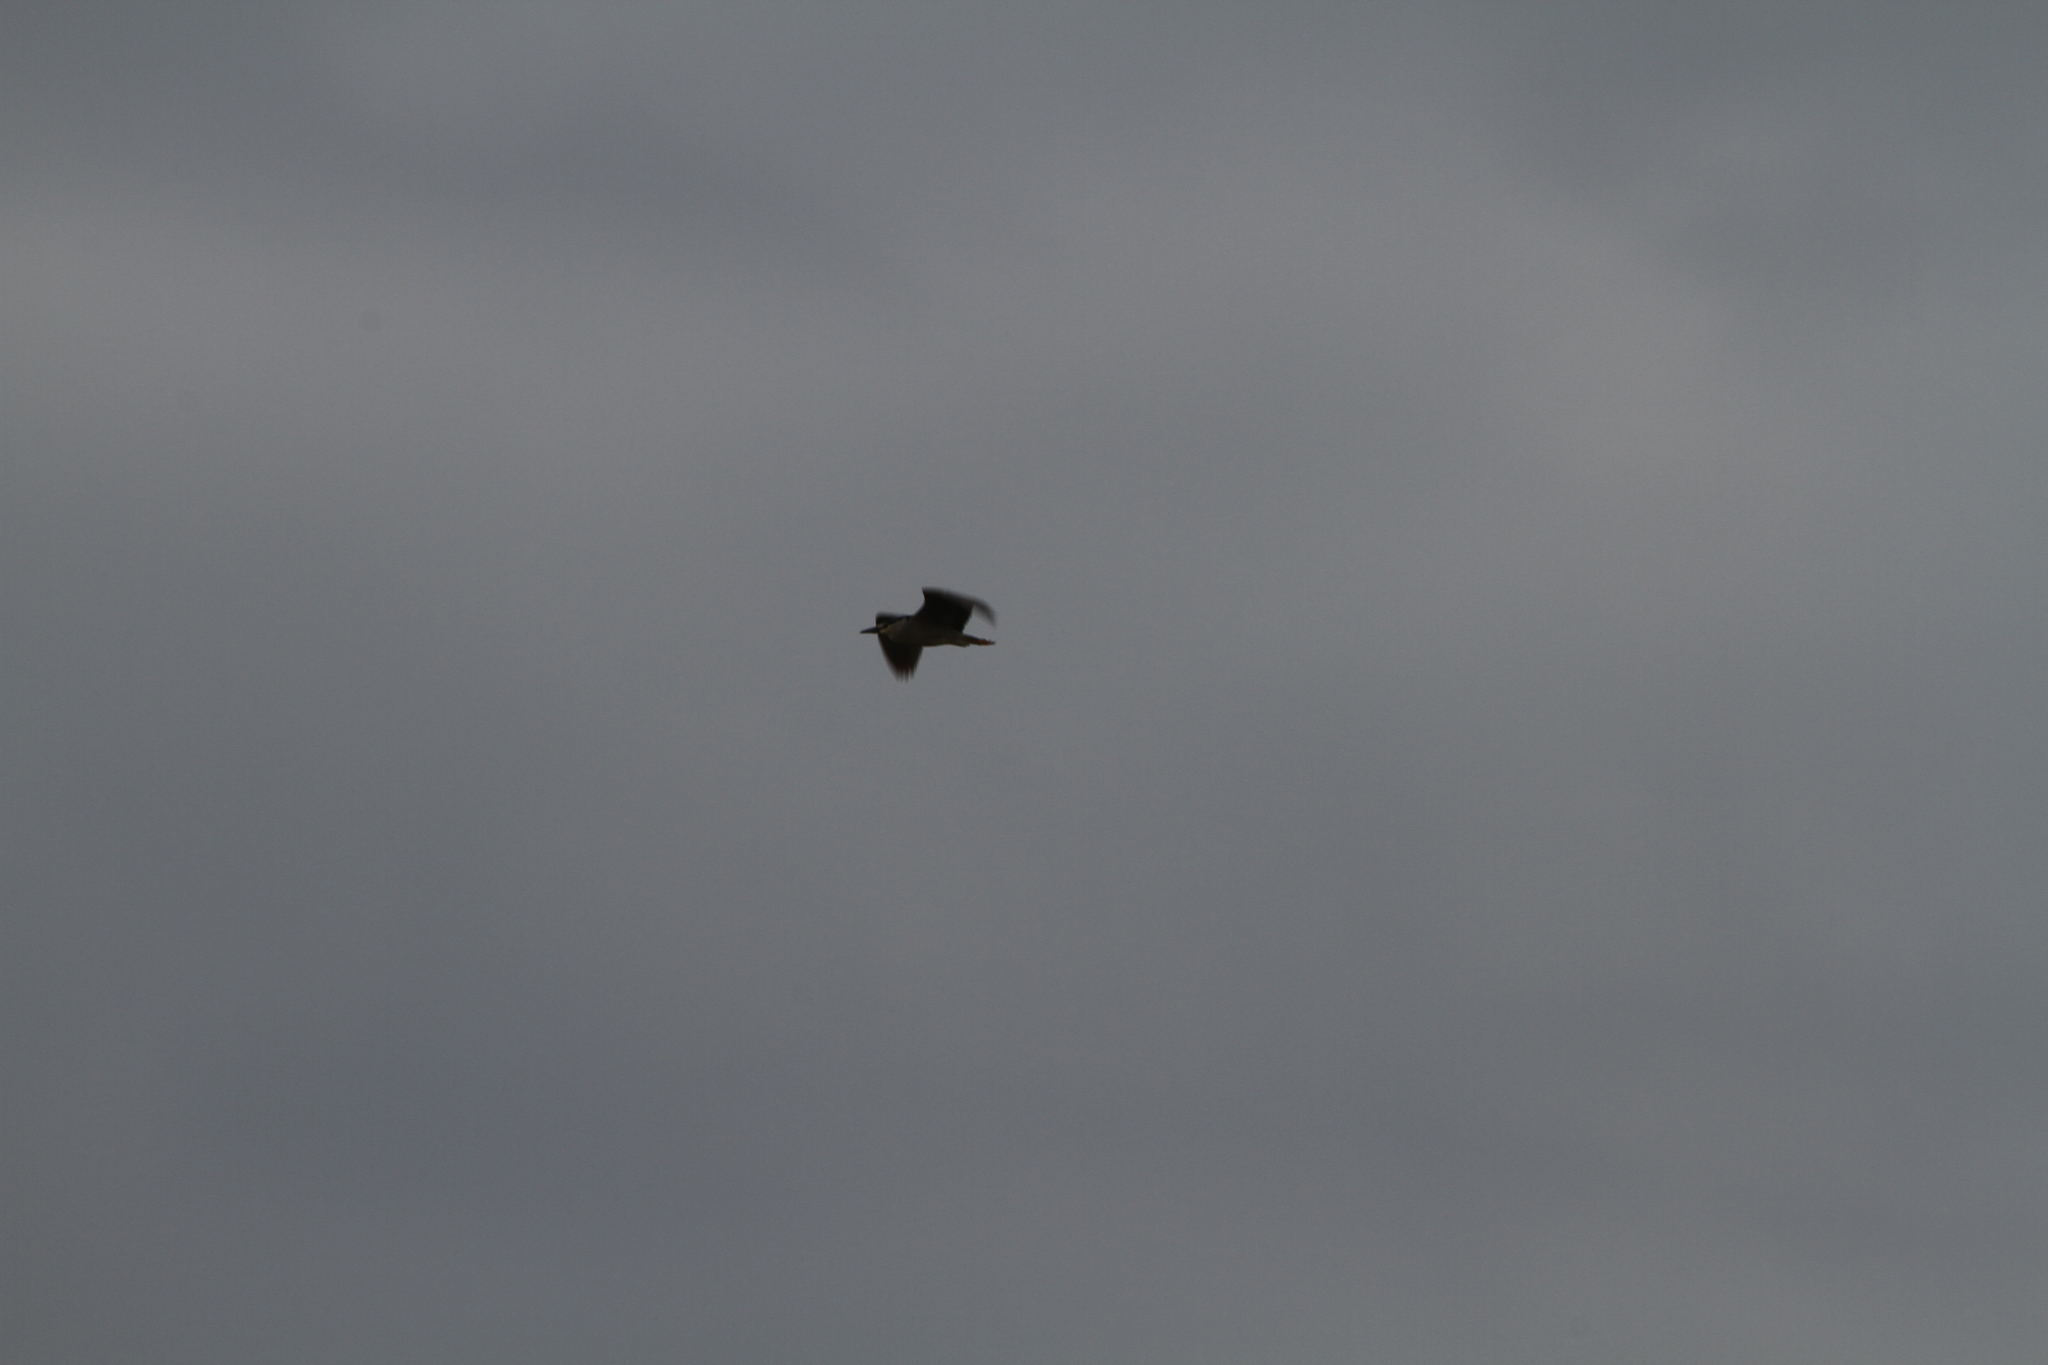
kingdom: Animalia
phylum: Chordata
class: Aves
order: Pelecaniformes
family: Ardeidae
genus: Nycticorax
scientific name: Nycticorax nycticorax
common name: Black-crowned night heron
